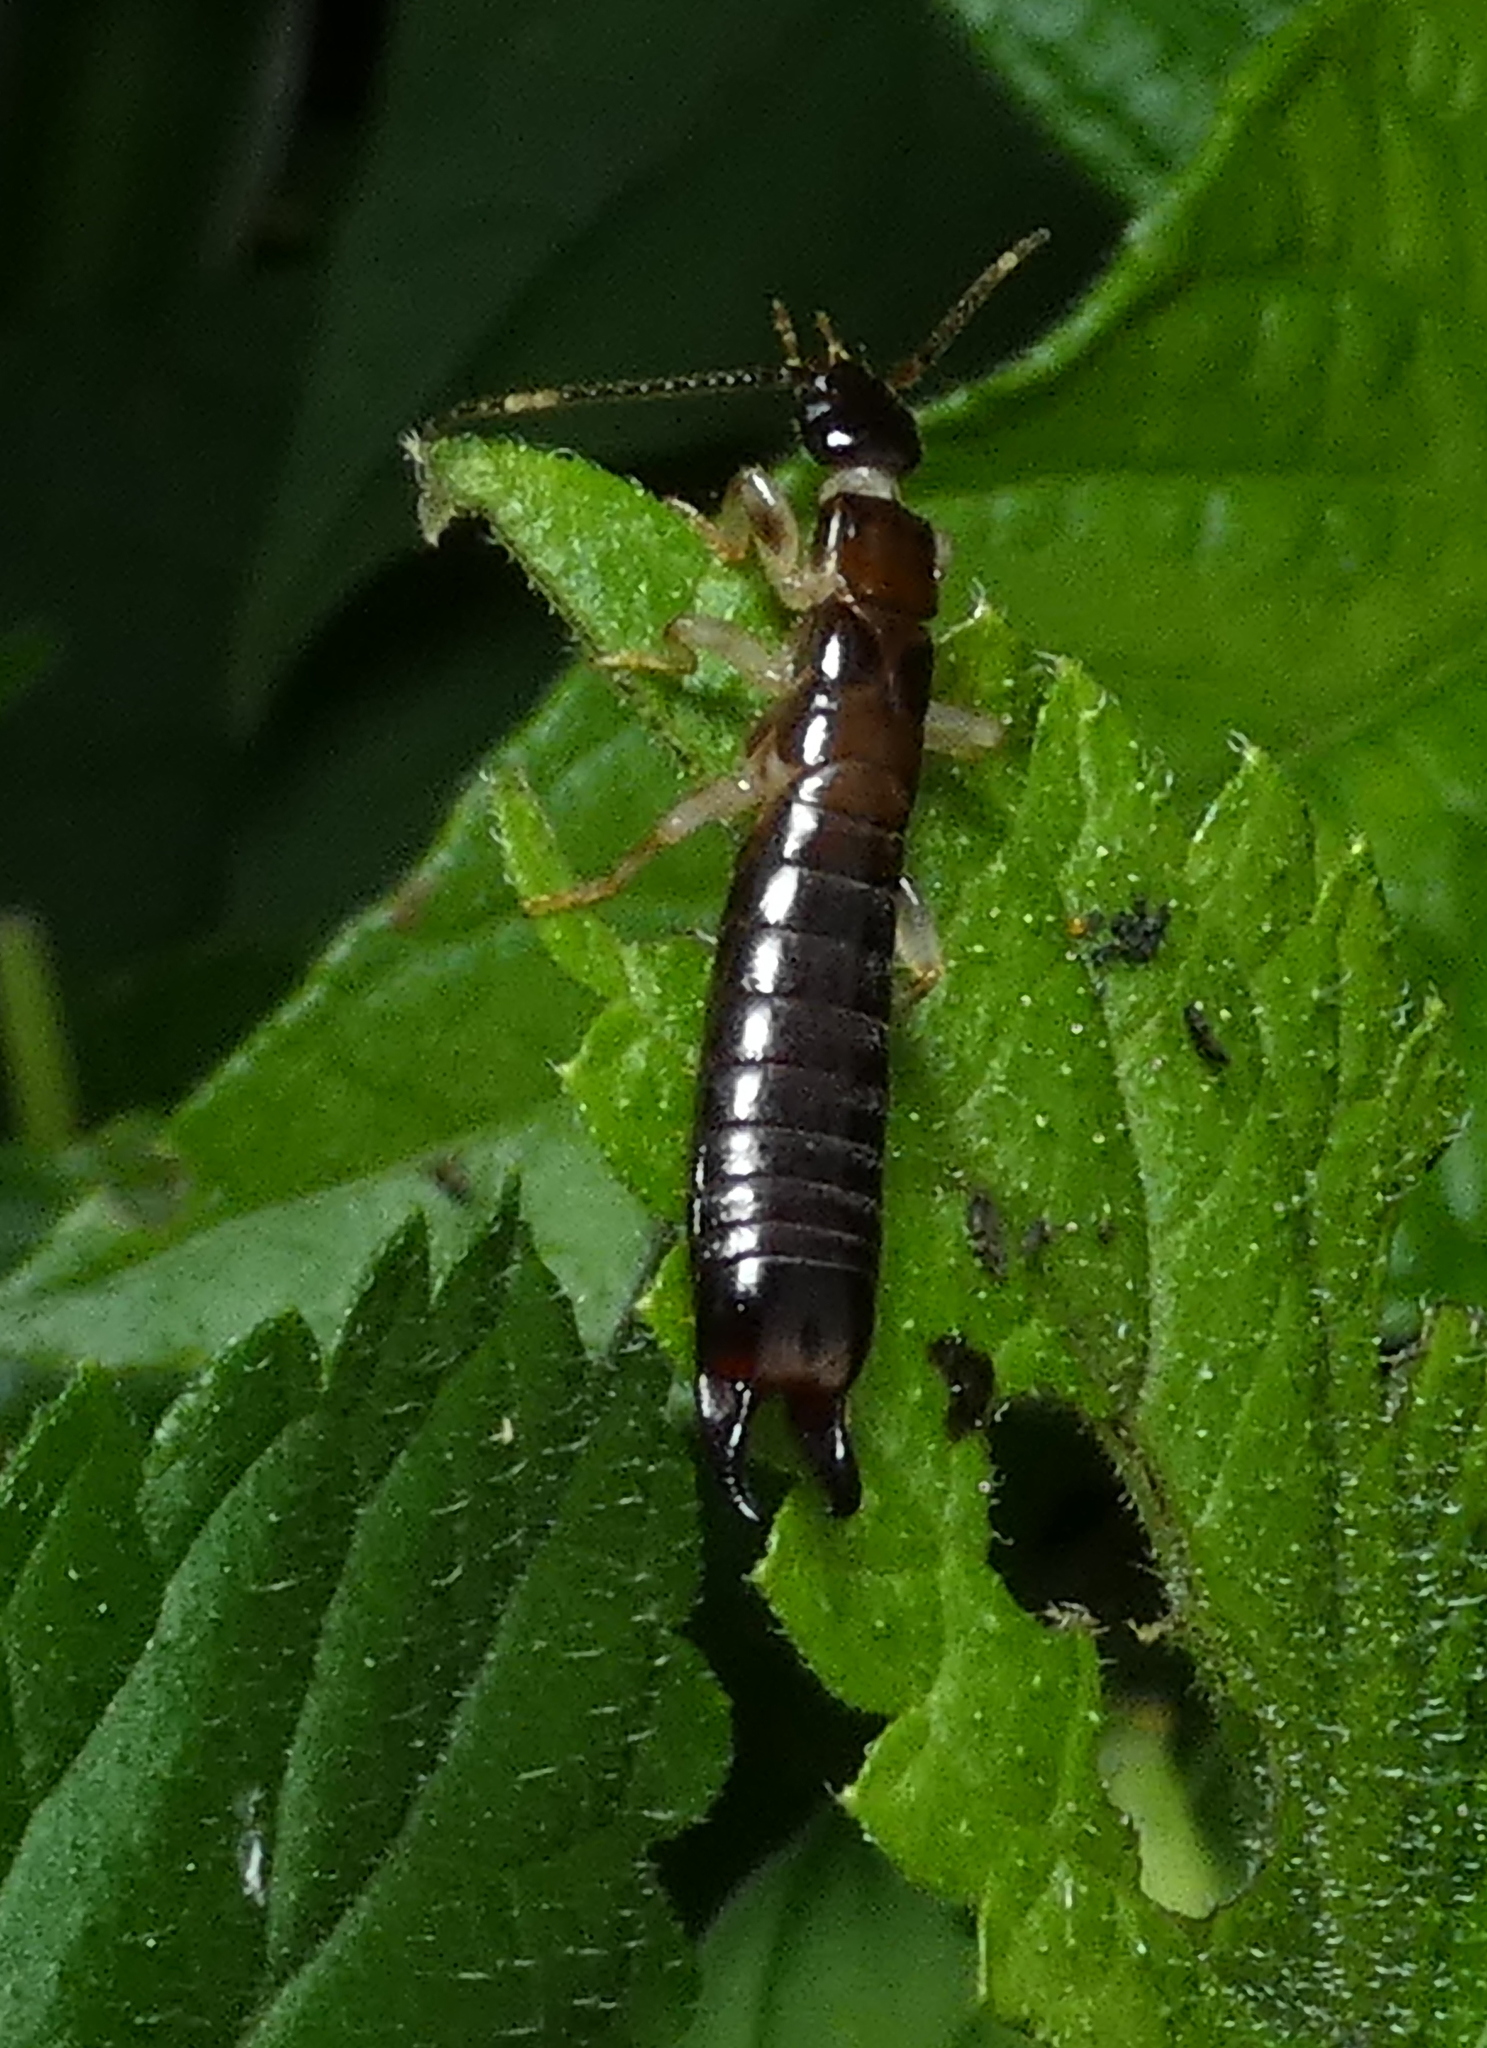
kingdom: Animalia
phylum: Arthropoda
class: Insecta
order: Dermaptera
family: Anisolabididae
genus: Euborellia
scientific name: Euborellia janeirensis
